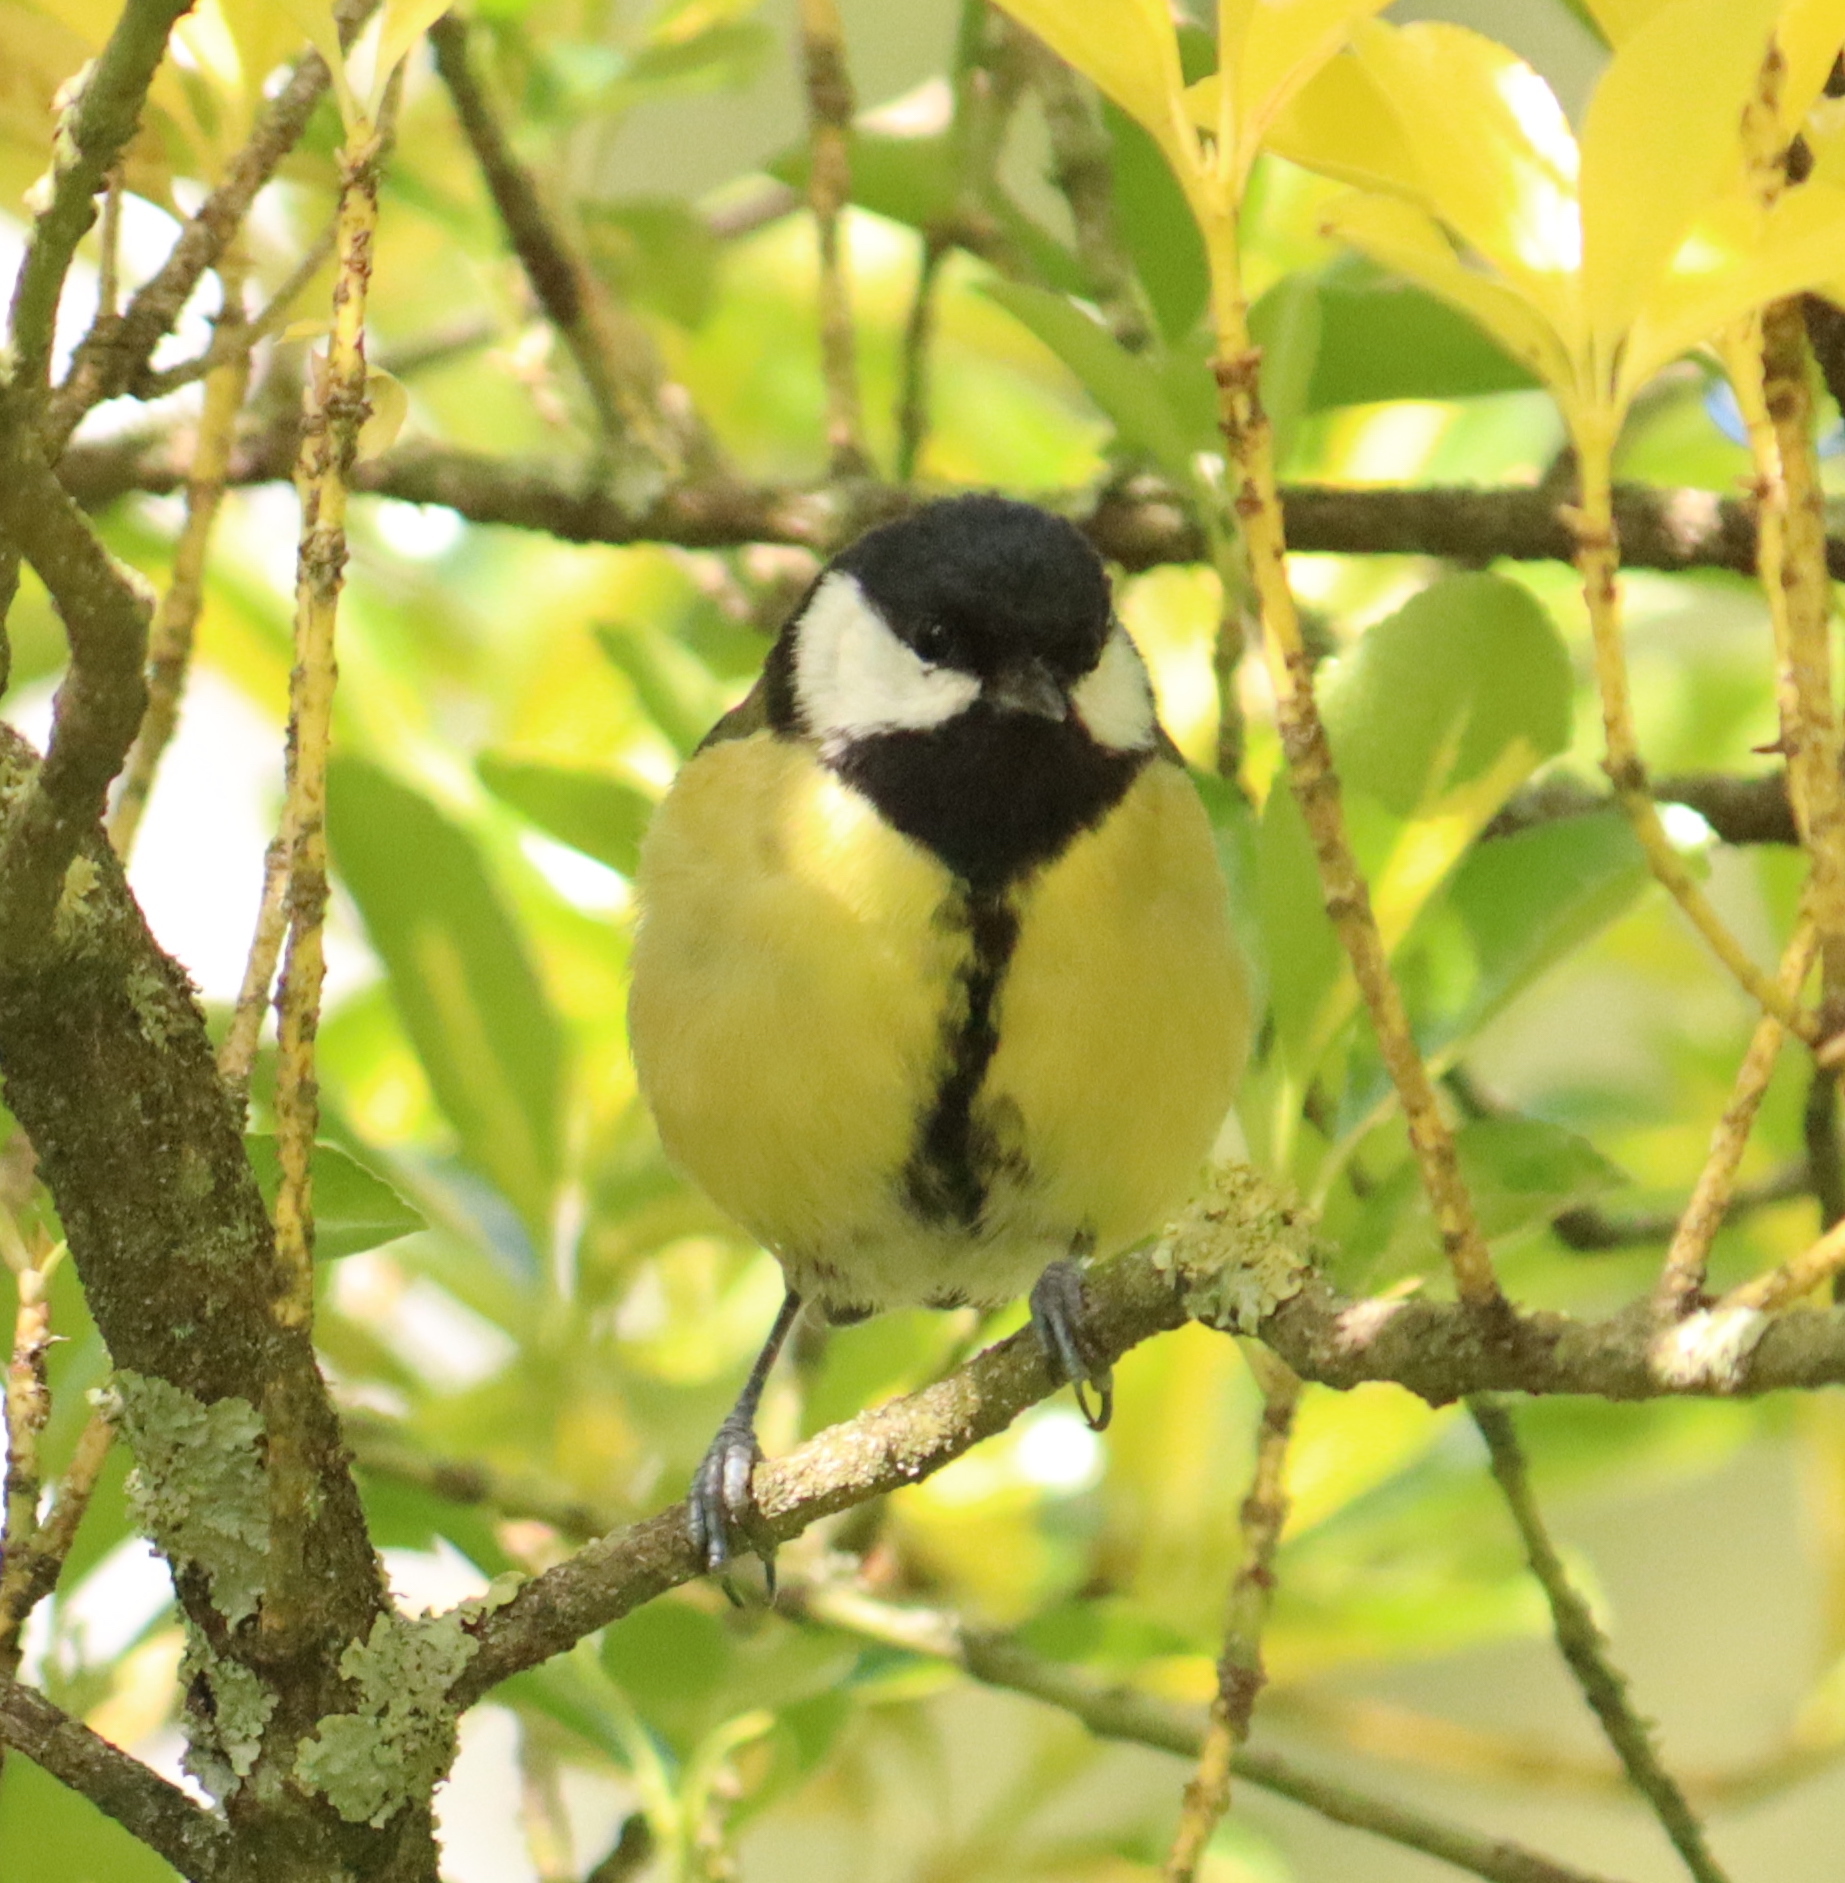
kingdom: Animalia
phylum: Chordata
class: Aves
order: Passeriformes
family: Paridae
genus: Parus
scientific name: Parus major
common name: Great tit
